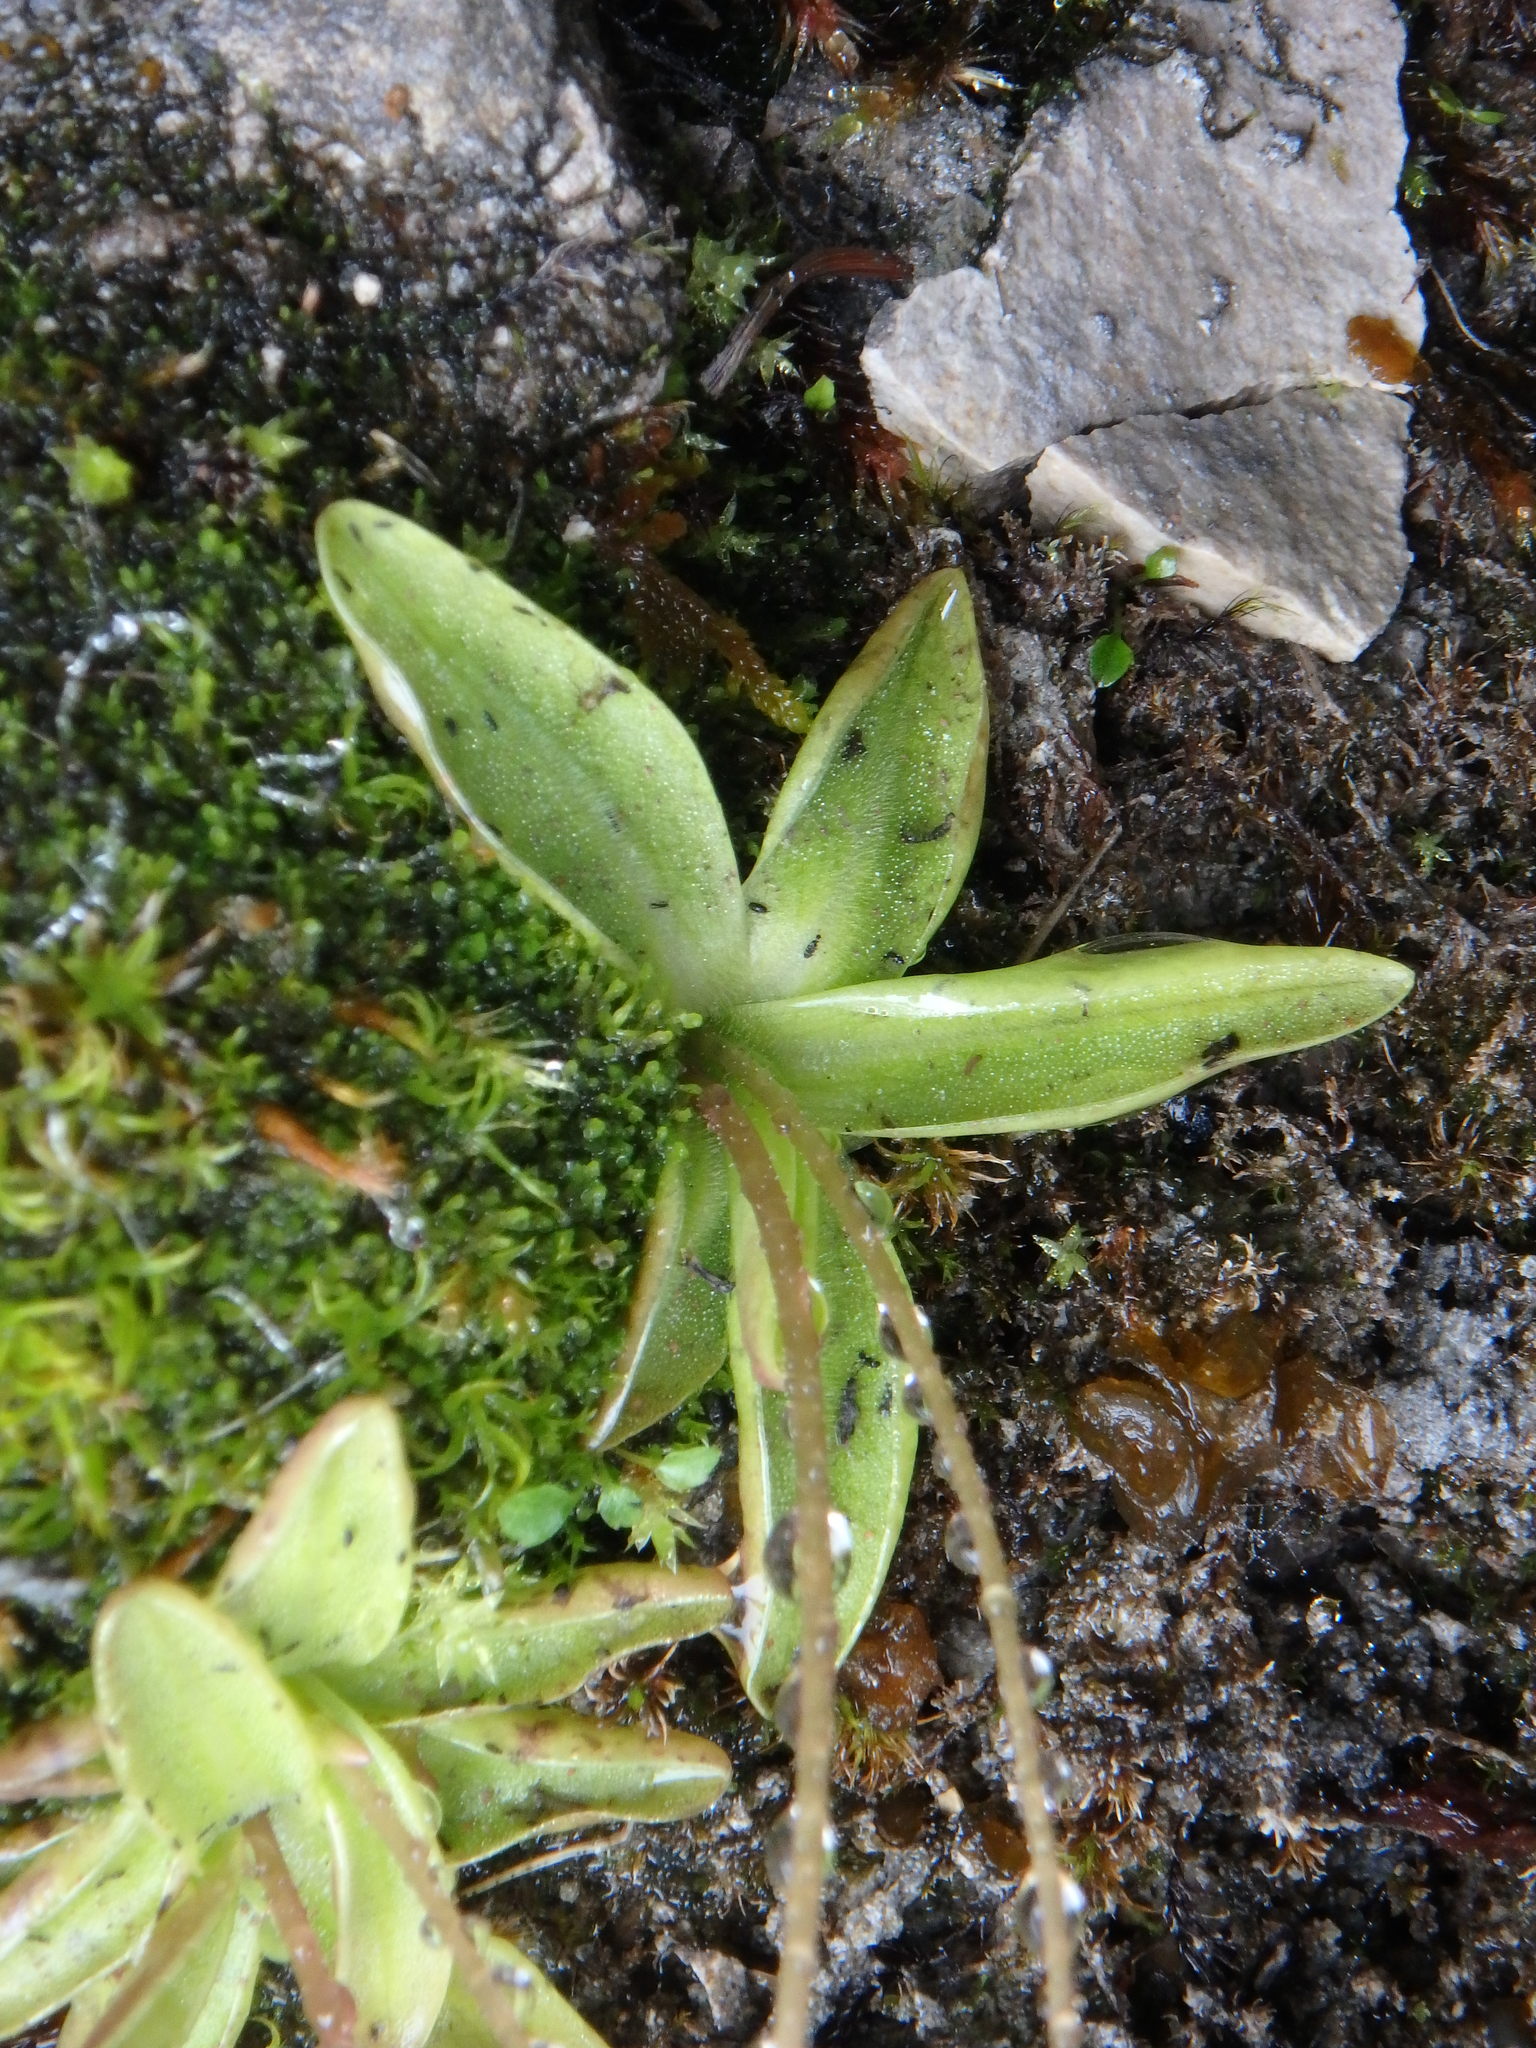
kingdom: Plantae
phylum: Tracheophyta
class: Magnoliopsida
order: Lamiales
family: Lentibulariaceae
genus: Pinguicula
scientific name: Pinguicula alpina
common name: Alpine butterwort
